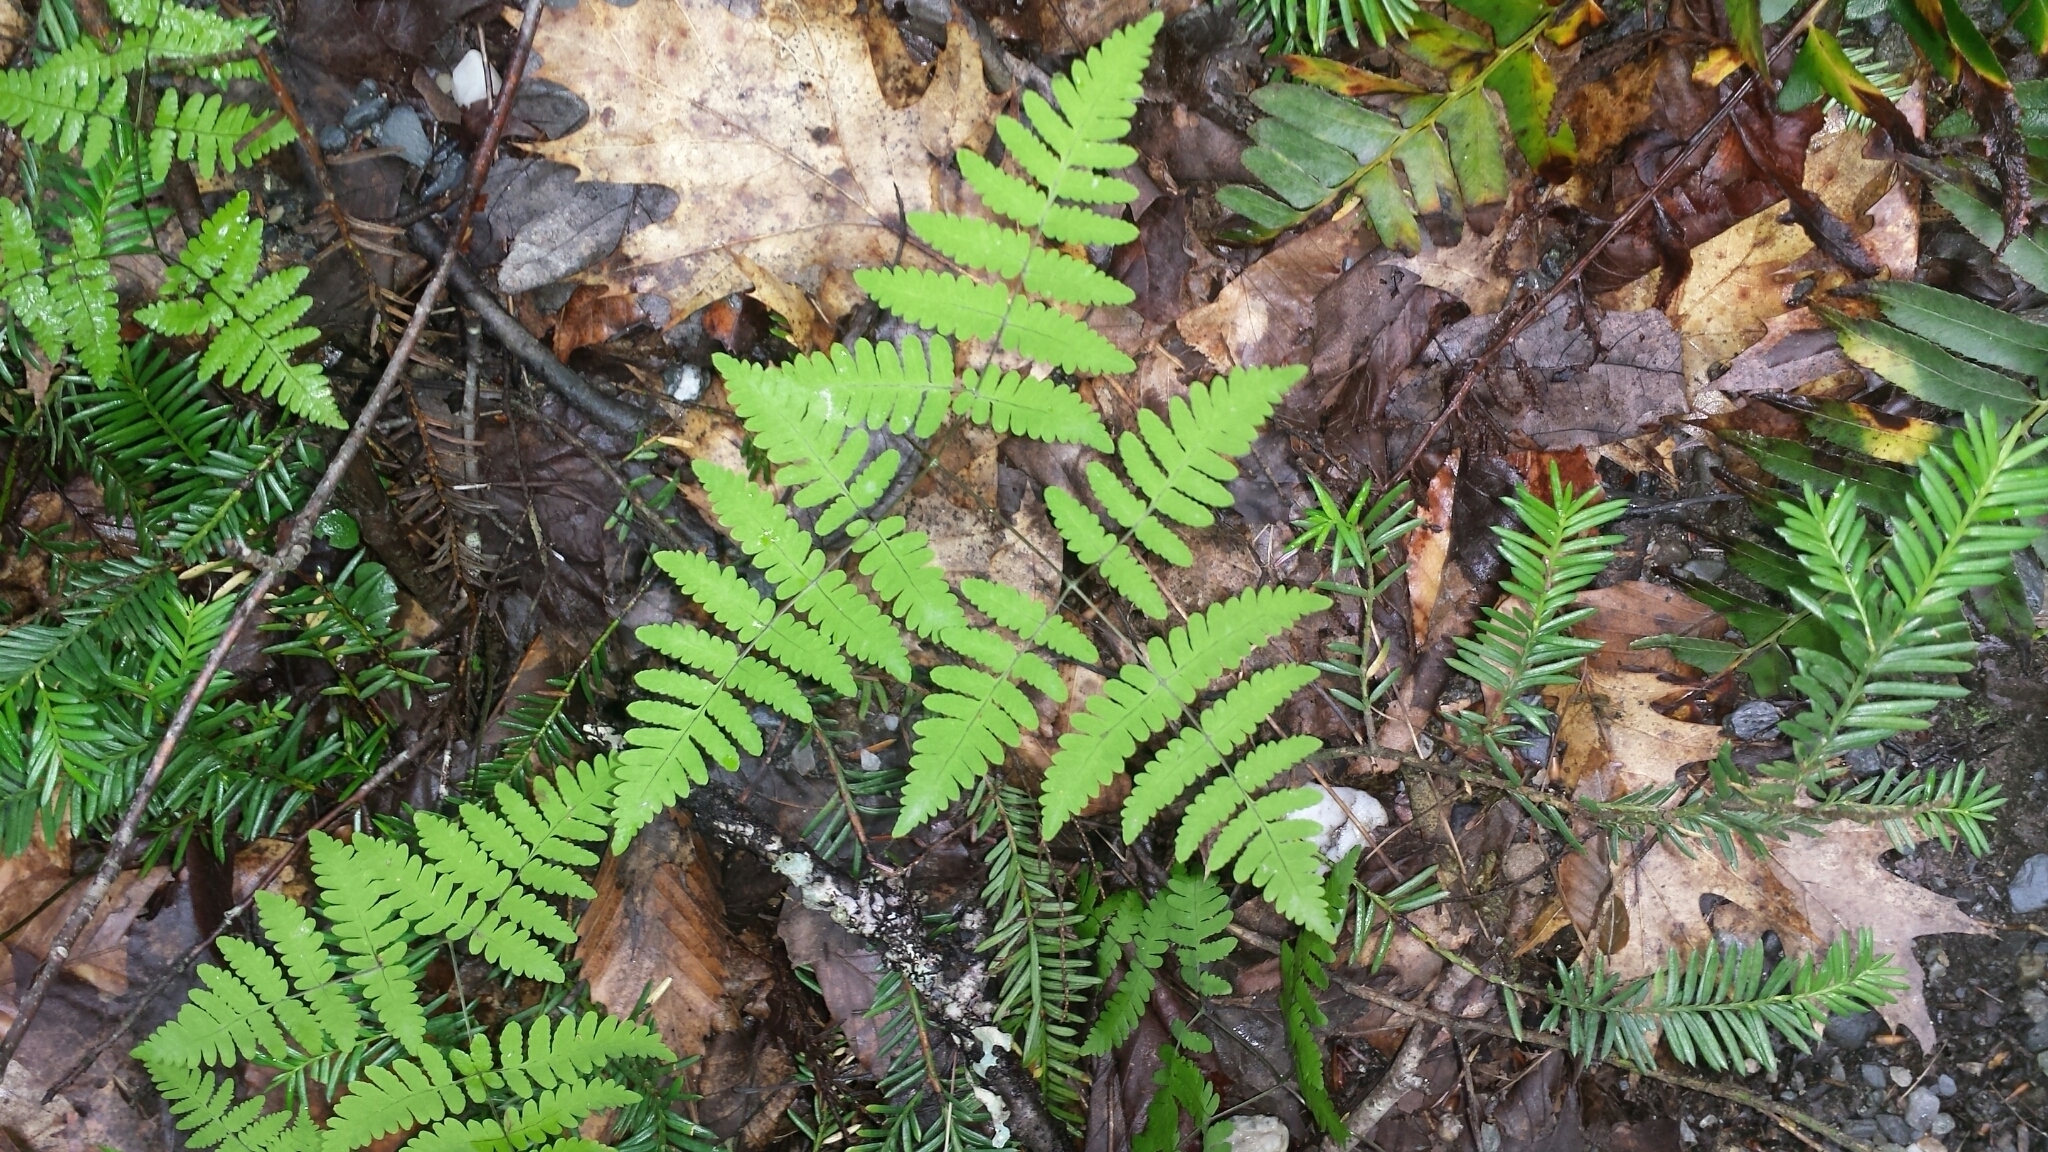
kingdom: Plantae
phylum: Tracheophyta
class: Polypodiopsida
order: Polypodiales
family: Cystopteridaceae
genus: Gymnocarpium
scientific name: Gymnocarpium dryopteris
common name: Oak fern
